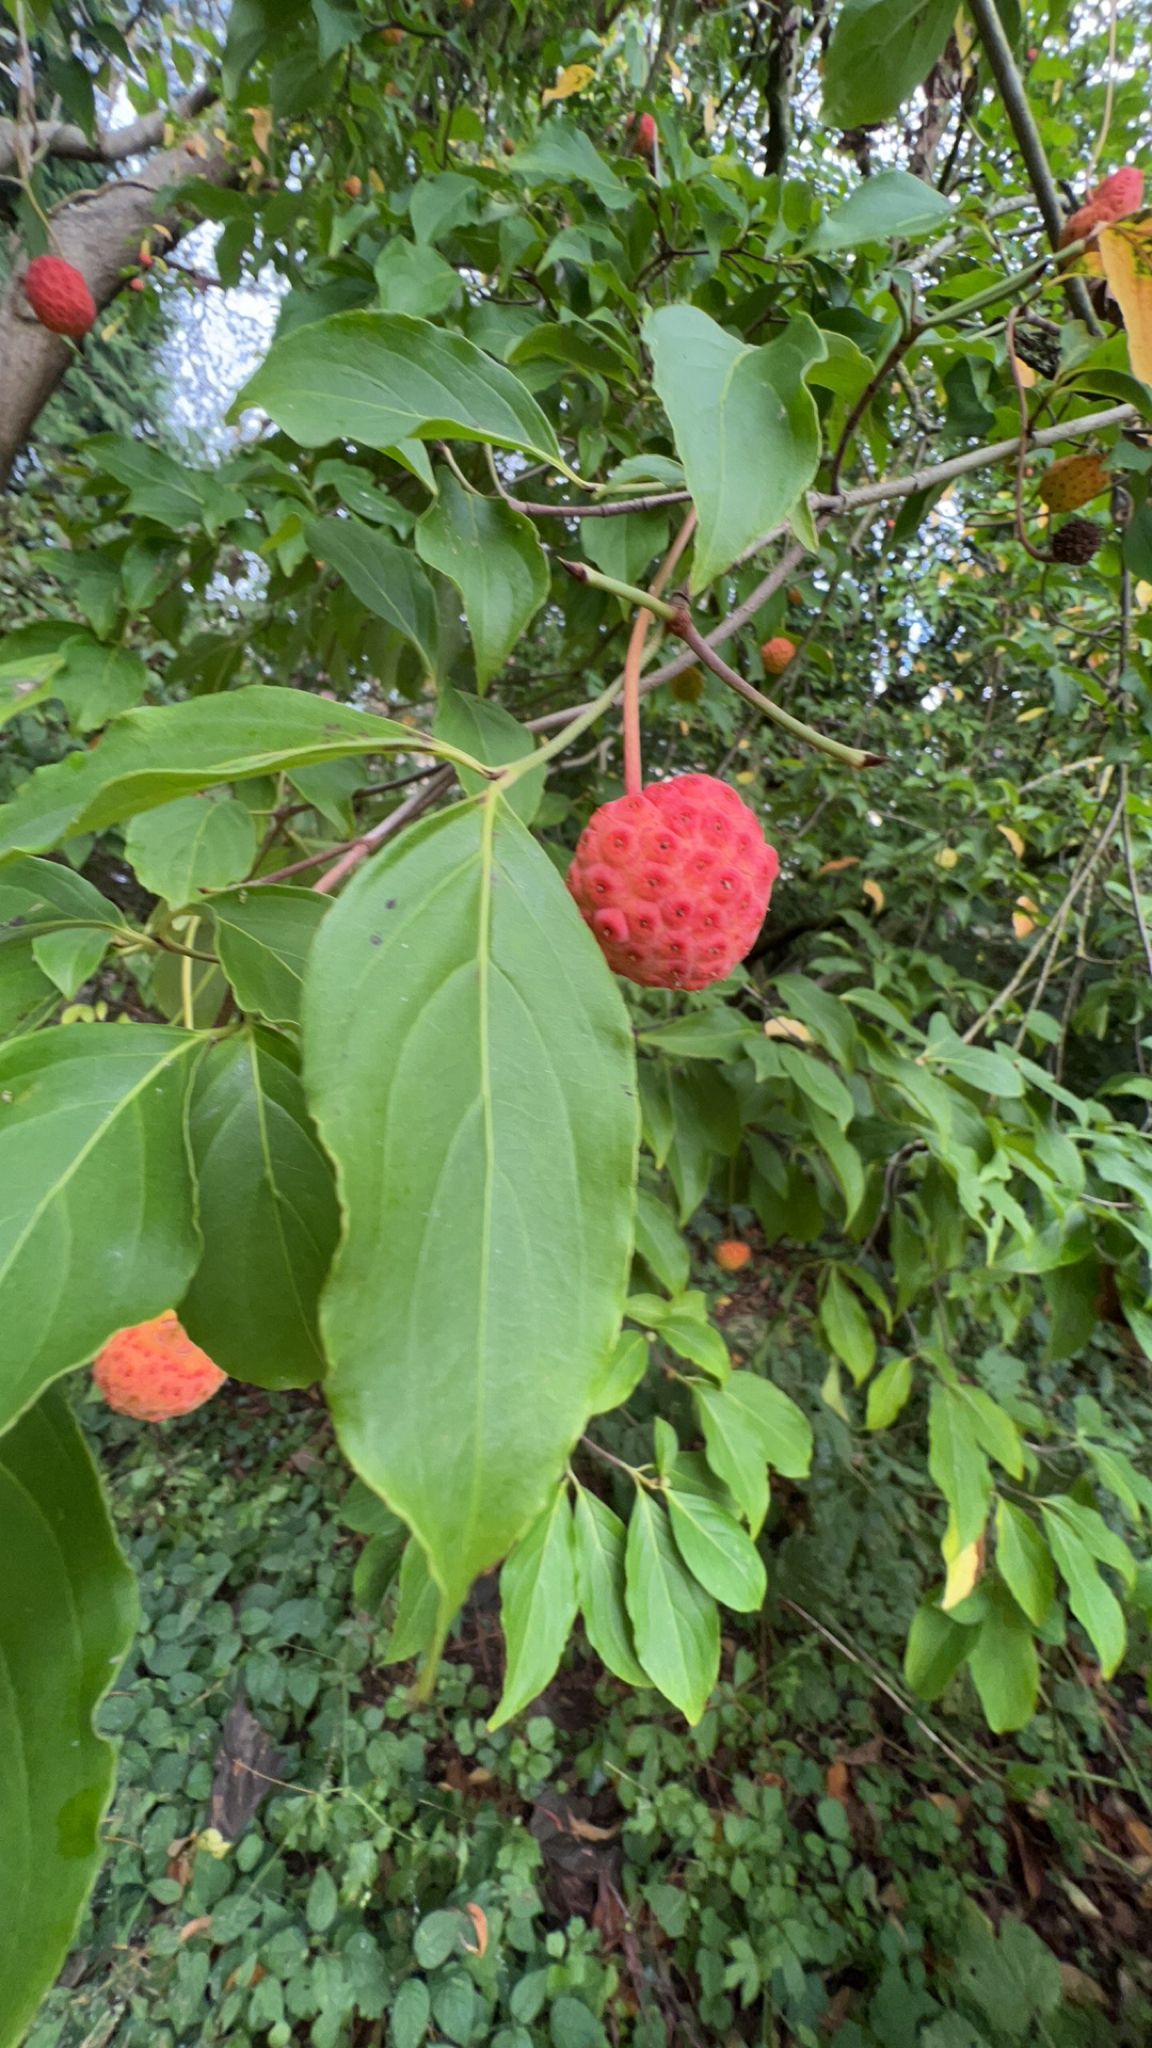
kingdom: Plantae
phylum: Tracheophyta
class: Magnoliopsida
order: Cornales
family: Cornaceae
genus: Cornus
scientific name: Cornus capitata
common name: Bentham's cornel
